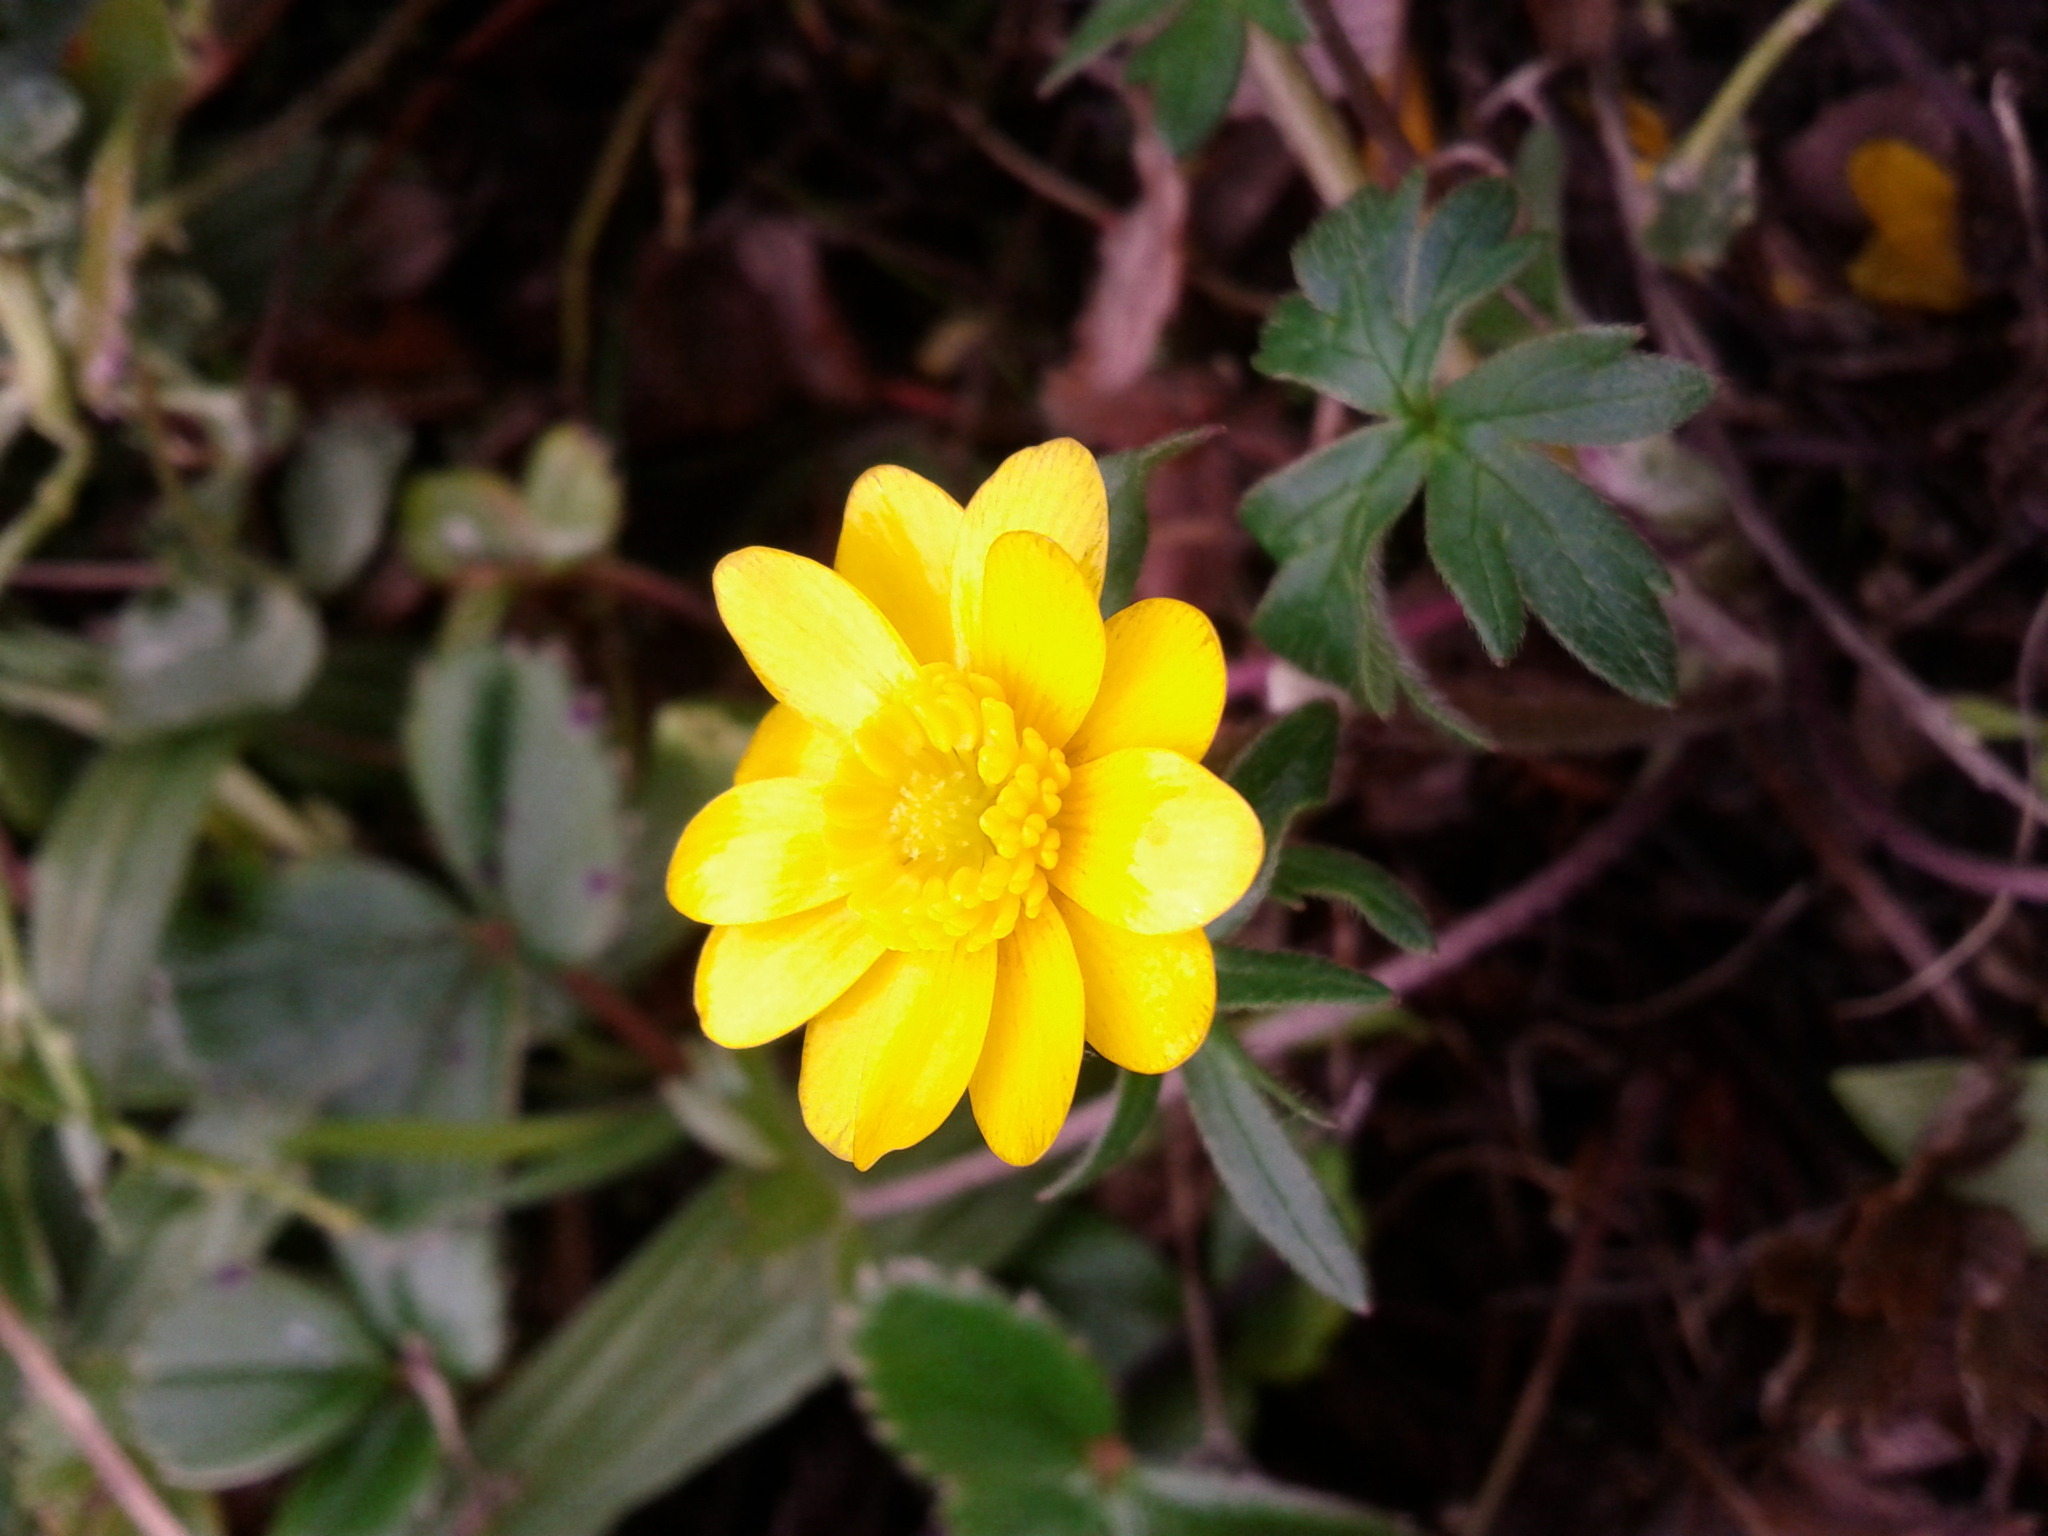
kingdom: Plantae
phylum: Tracheophyta
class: Magnoliopsida
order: Ranunculales
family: Ranunculaceae
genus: Ranunculus
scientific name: Ranunculus californicus
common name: California buttercup
